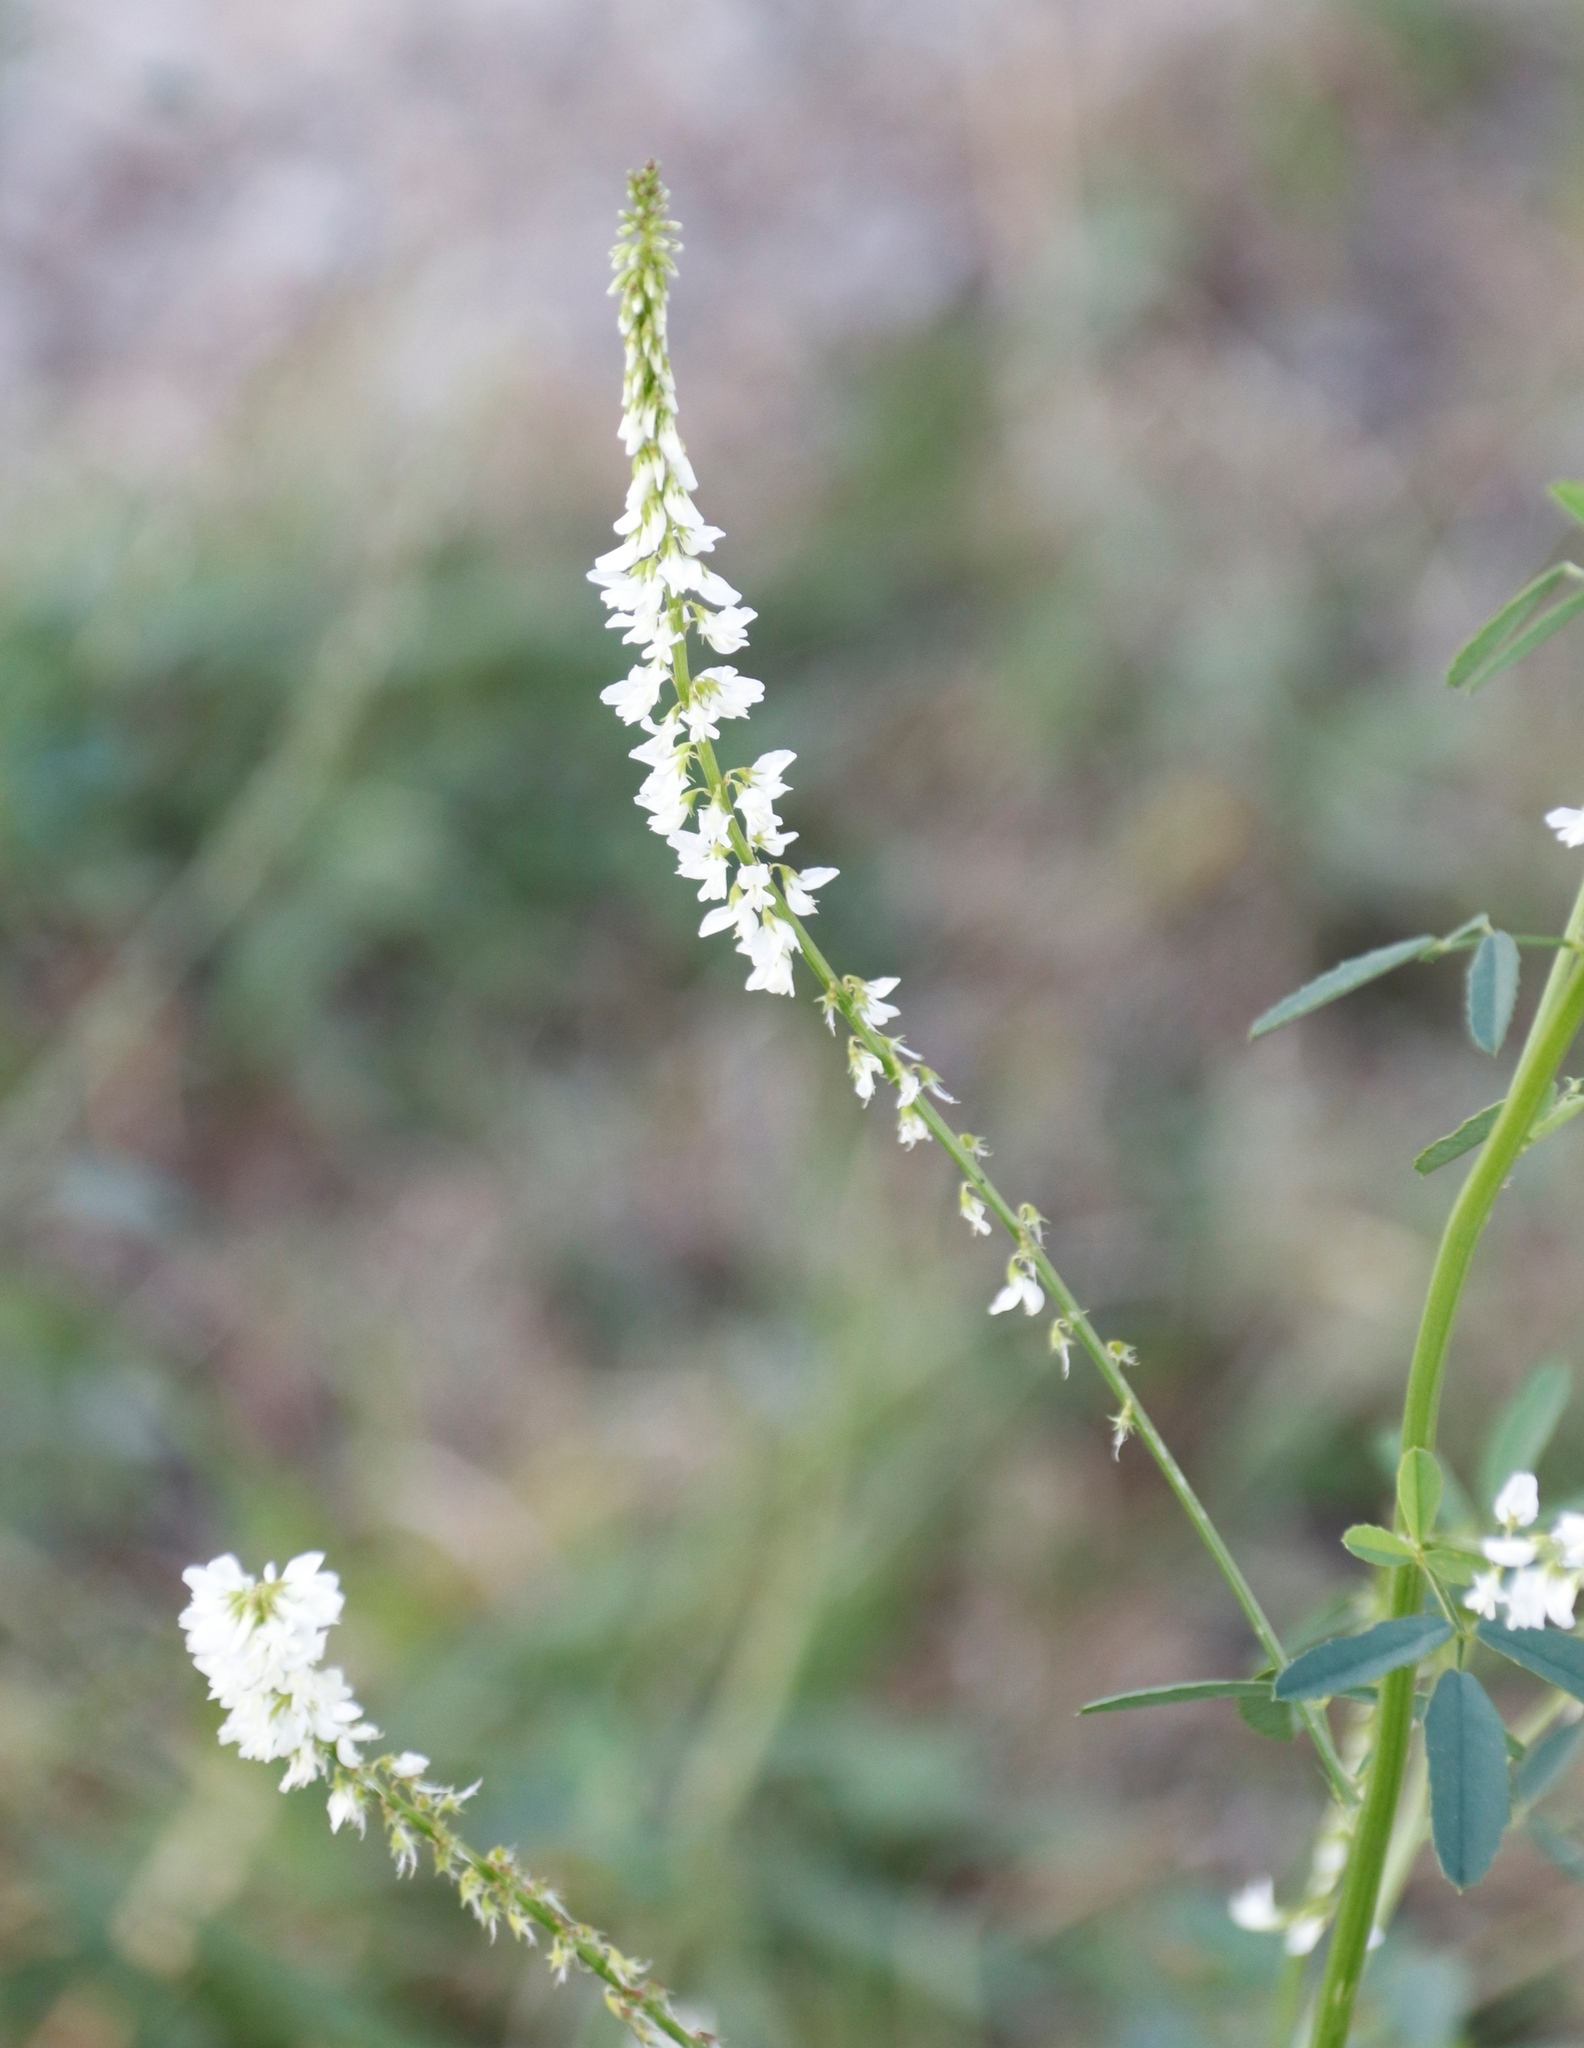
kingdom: Plantae
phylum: Tracheophyta
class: Magnoliopsida
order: Fabales
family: Fabaceae
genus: Melilotus
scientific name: Melilotus albus
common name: White melilot
